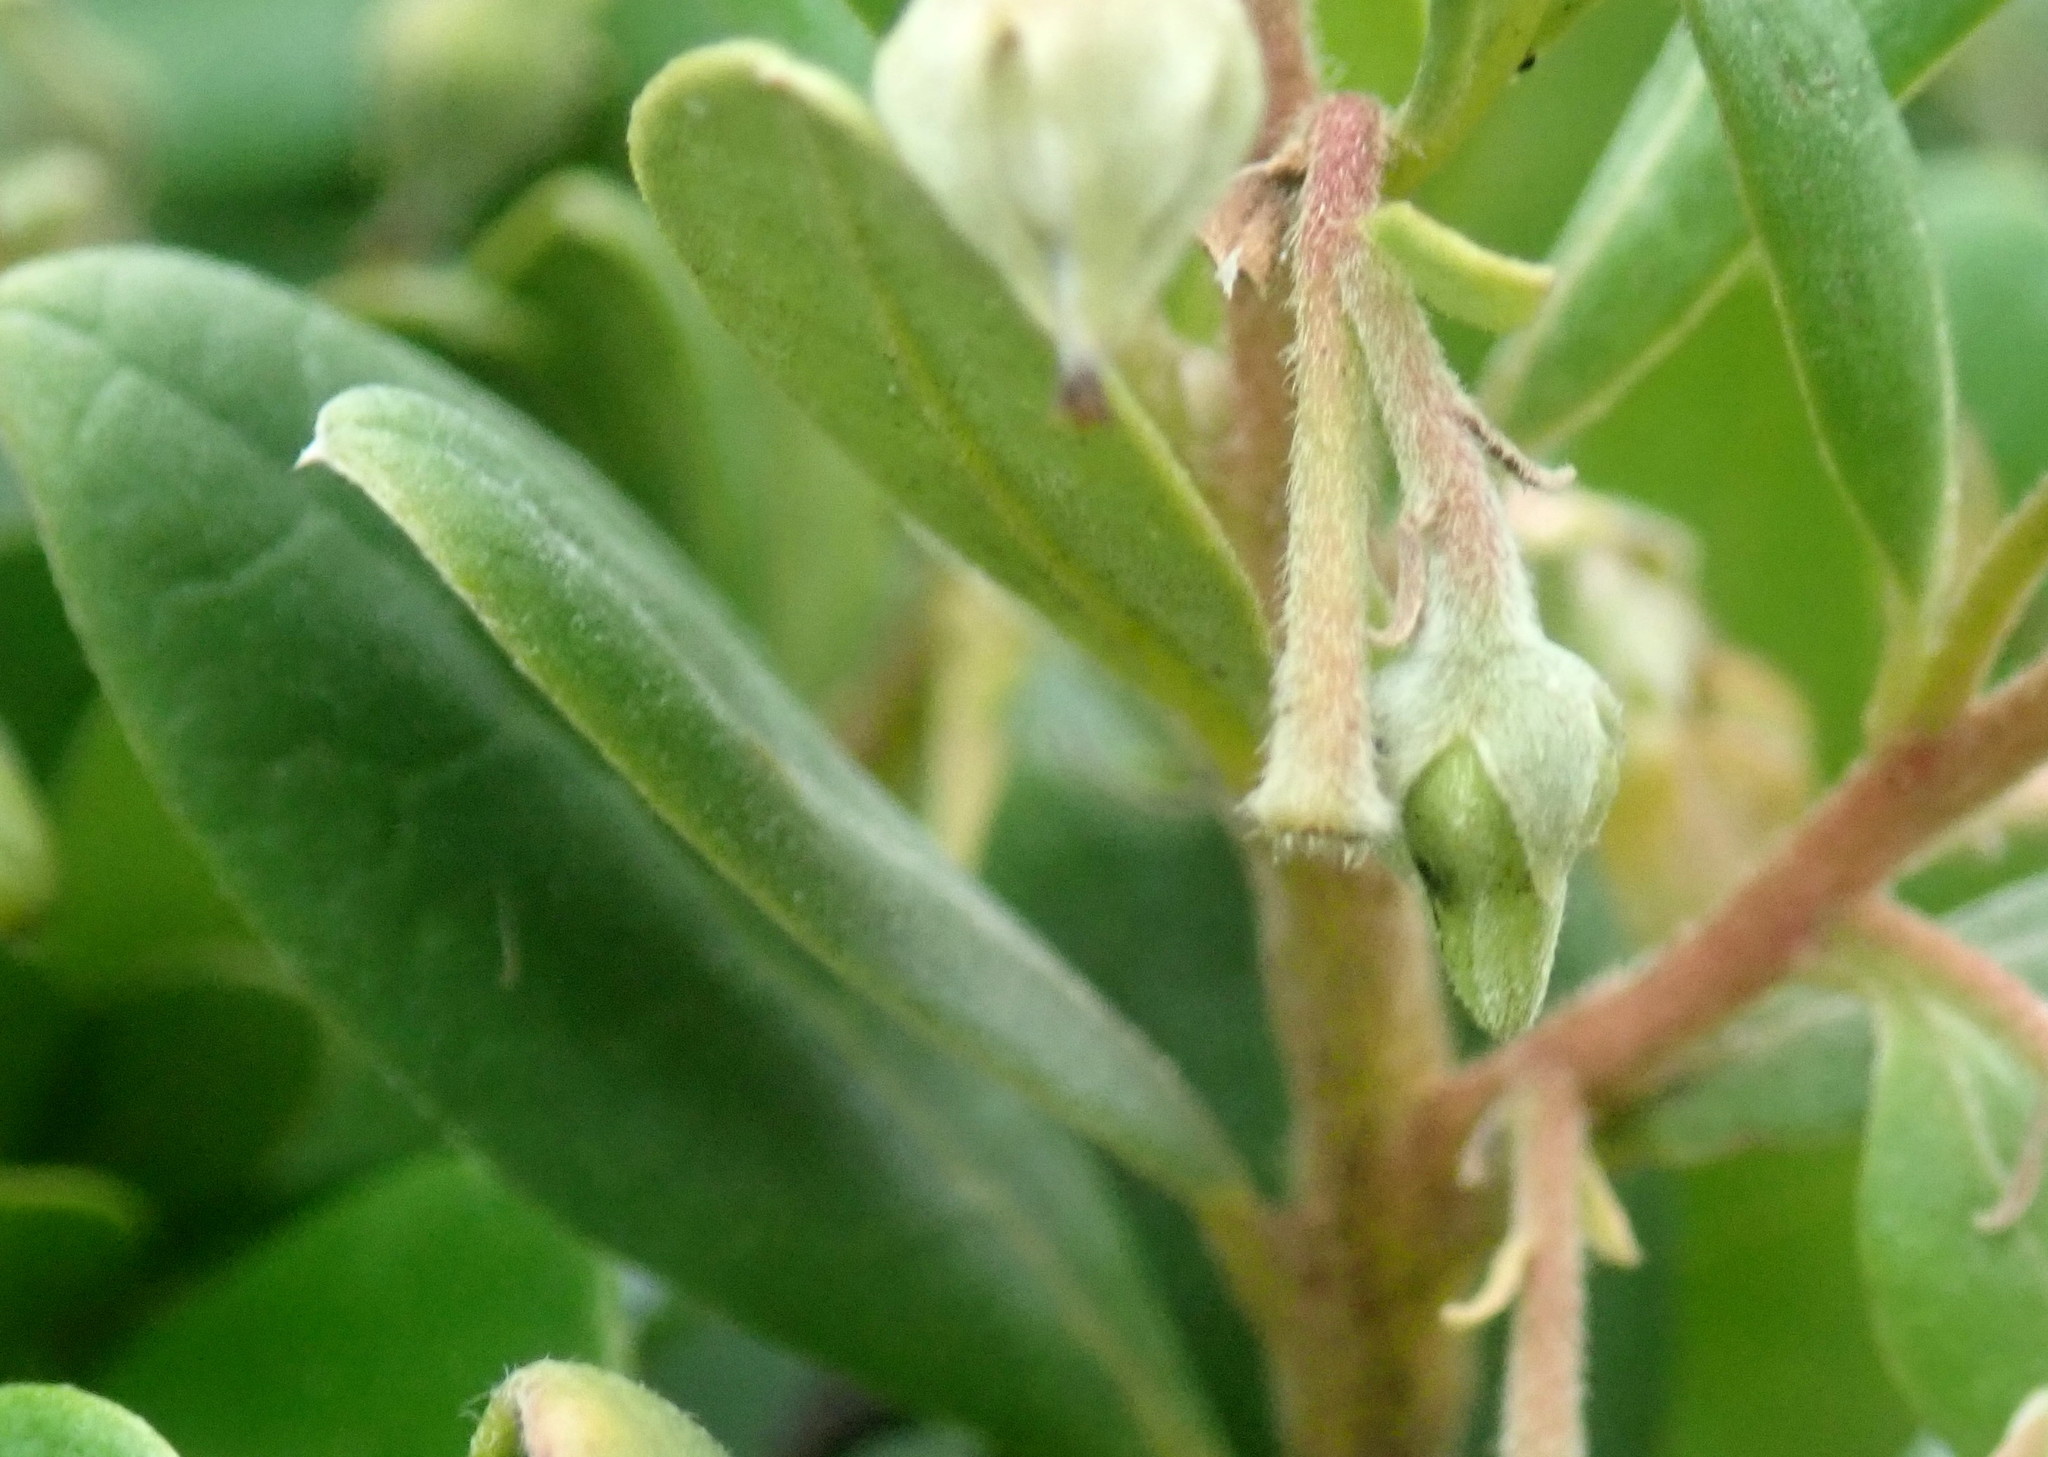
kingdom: Plantae
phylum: Tracheophyta
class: Magnoliopsida
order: Ericales
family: Ebenaceae
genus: Diospyros
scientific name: Diospyros dichrophylla
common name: Common star-apple
